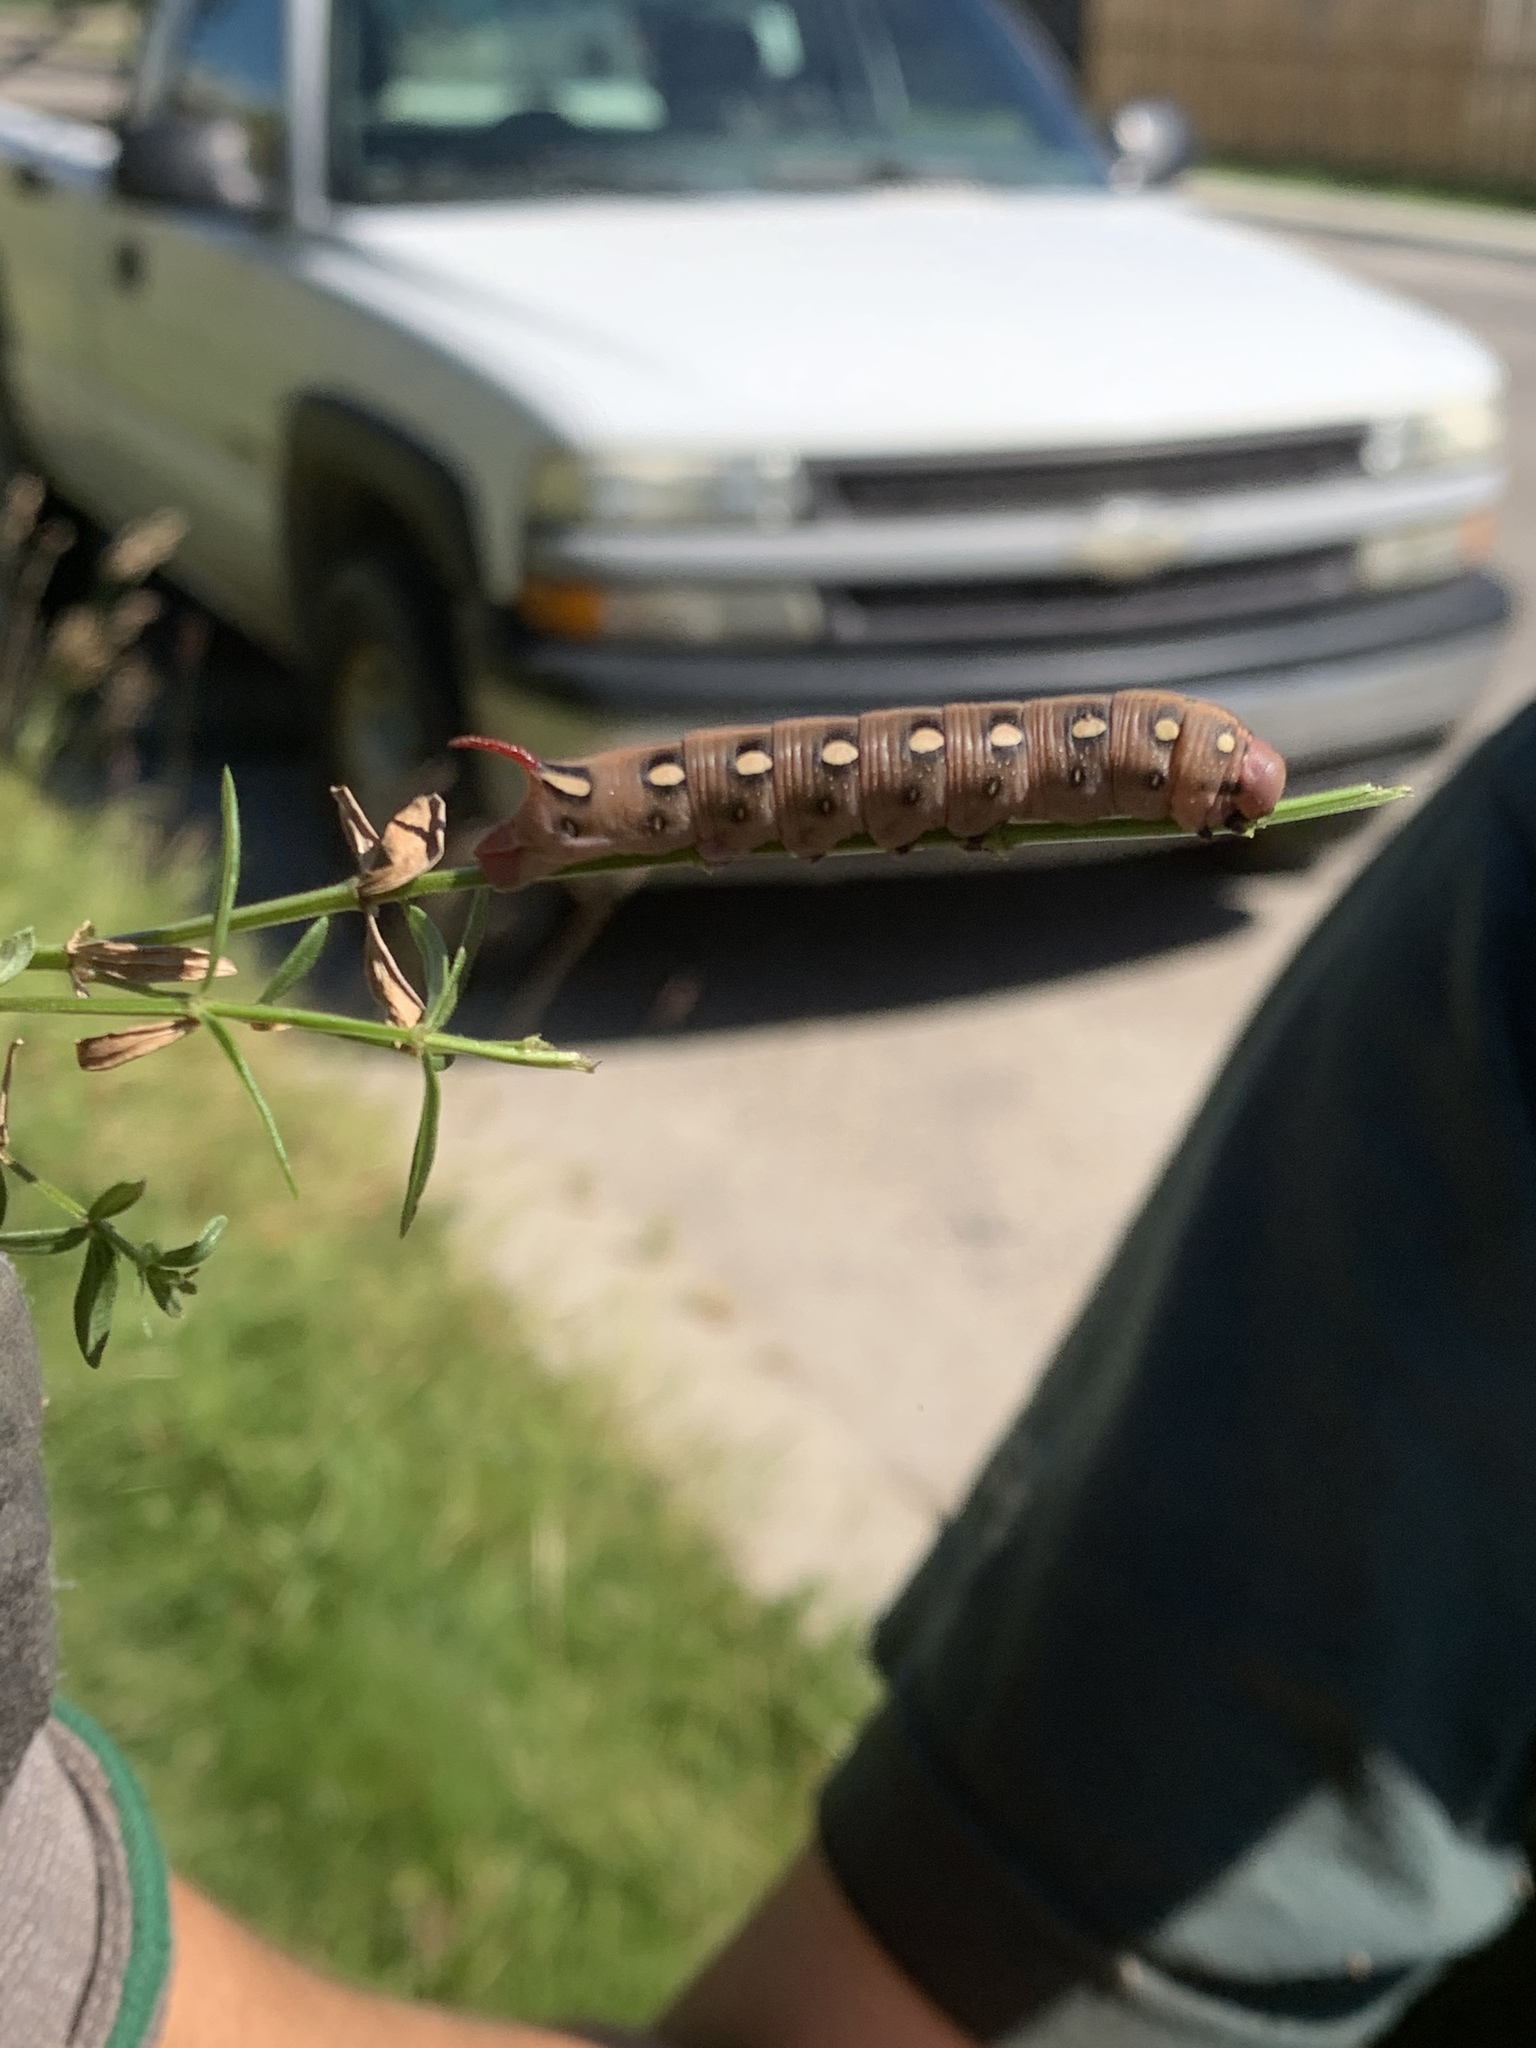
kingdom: Animalia
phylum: Arthropoda
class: Insecta
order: Lepidoptera
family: Sphingidae
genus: Hyles
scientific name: Hyles gallii
